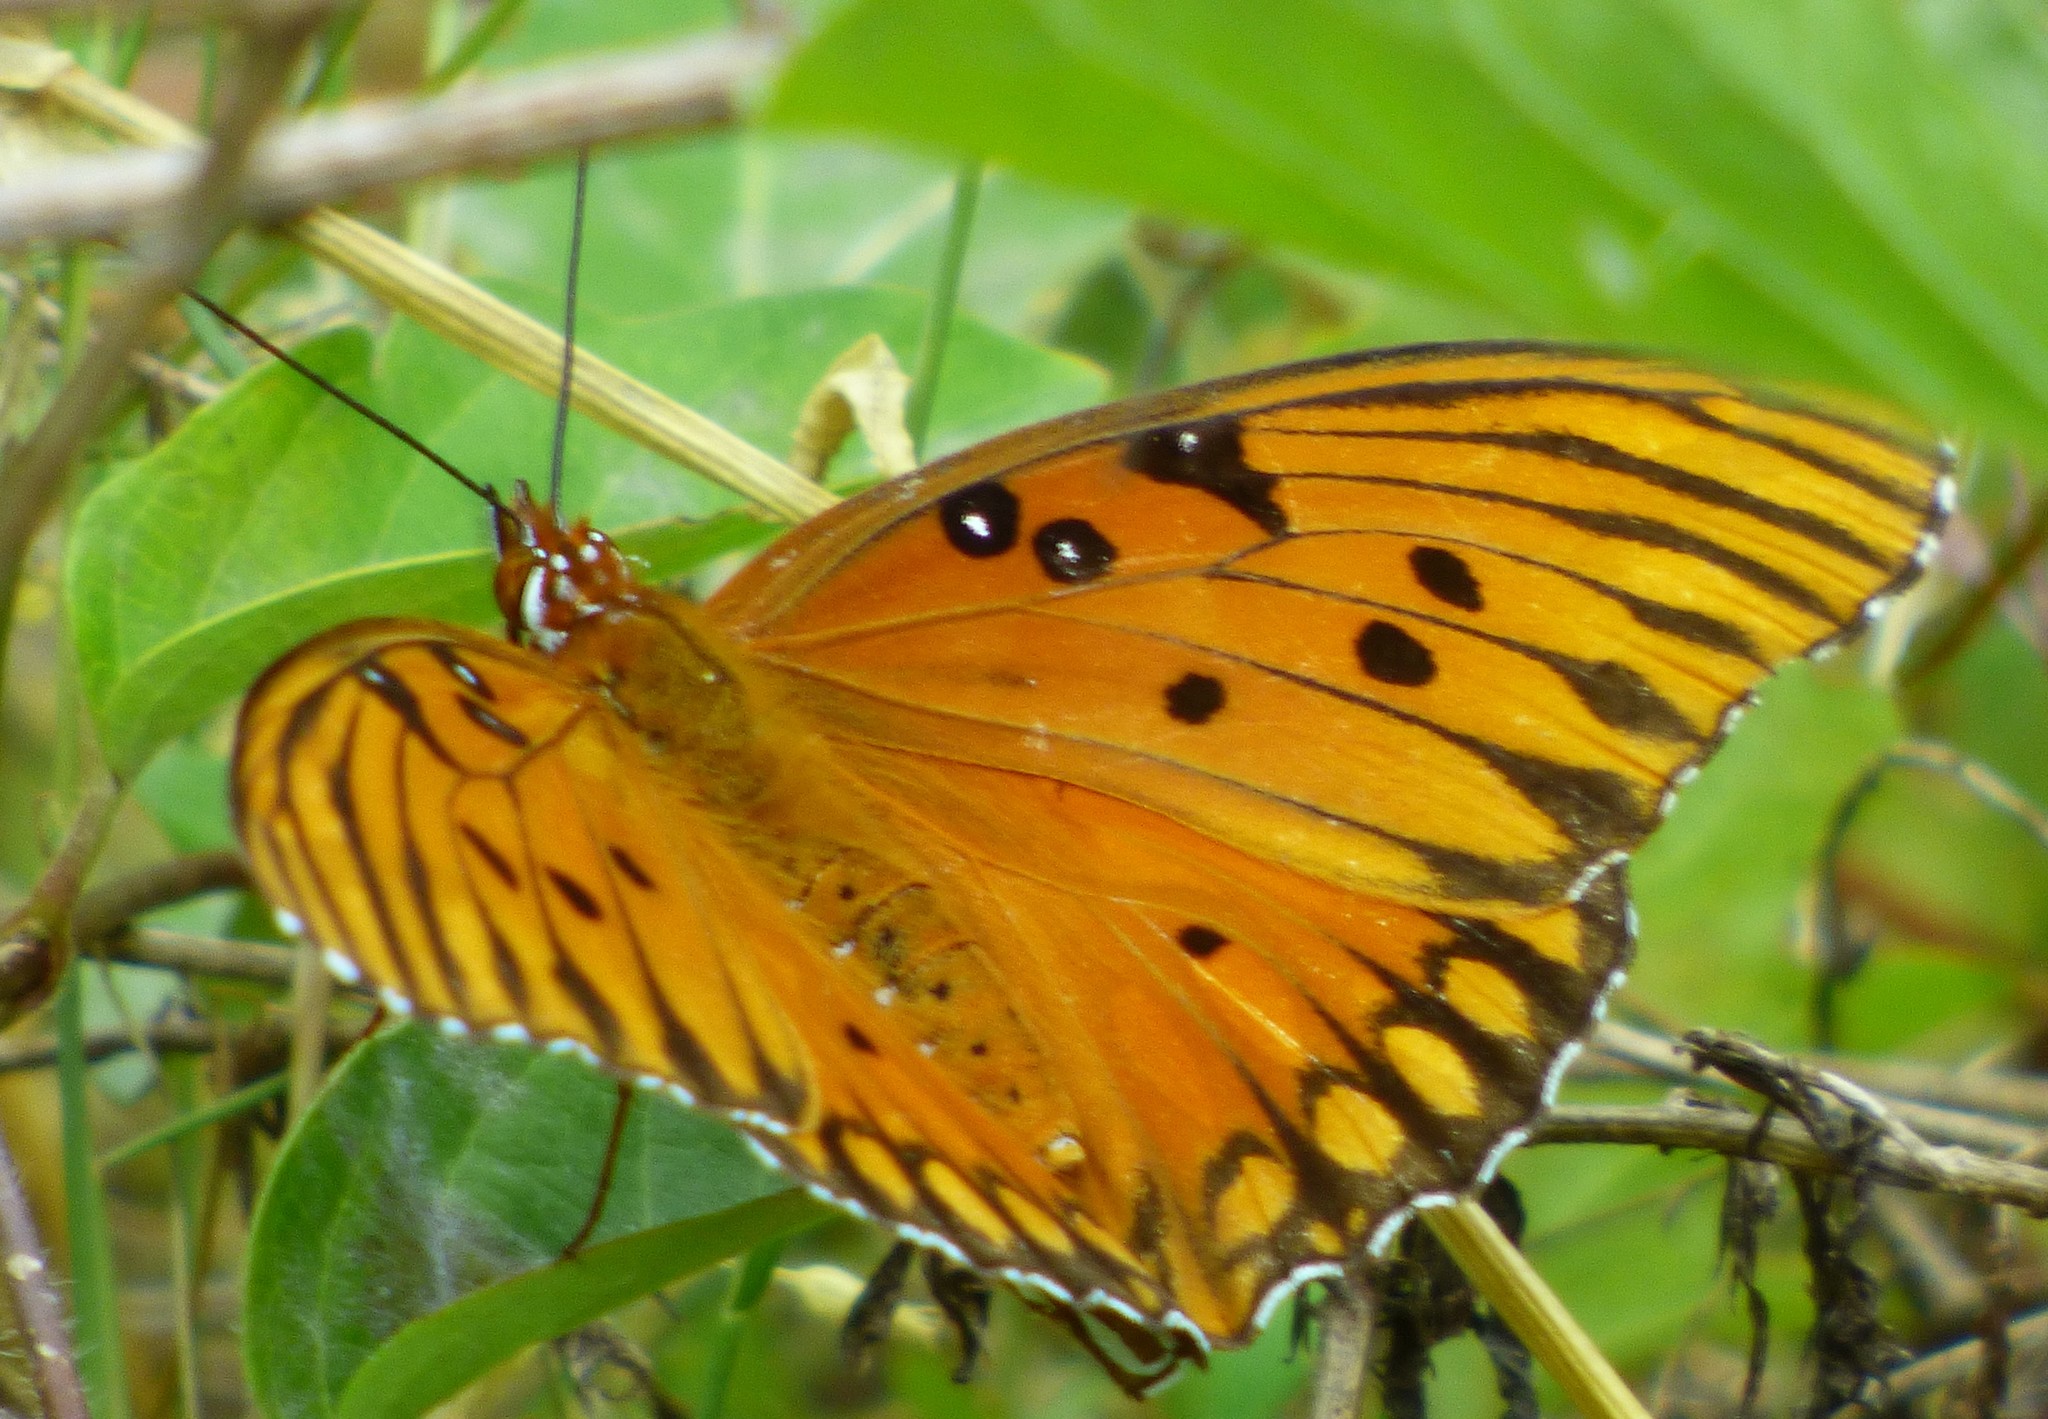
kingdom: Animalia
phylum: Arthropoda
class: Insecta
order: Lepidoptera
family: Nymphalidae
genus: Dione
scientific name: Dione vanillae
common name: Gulf fritillary
